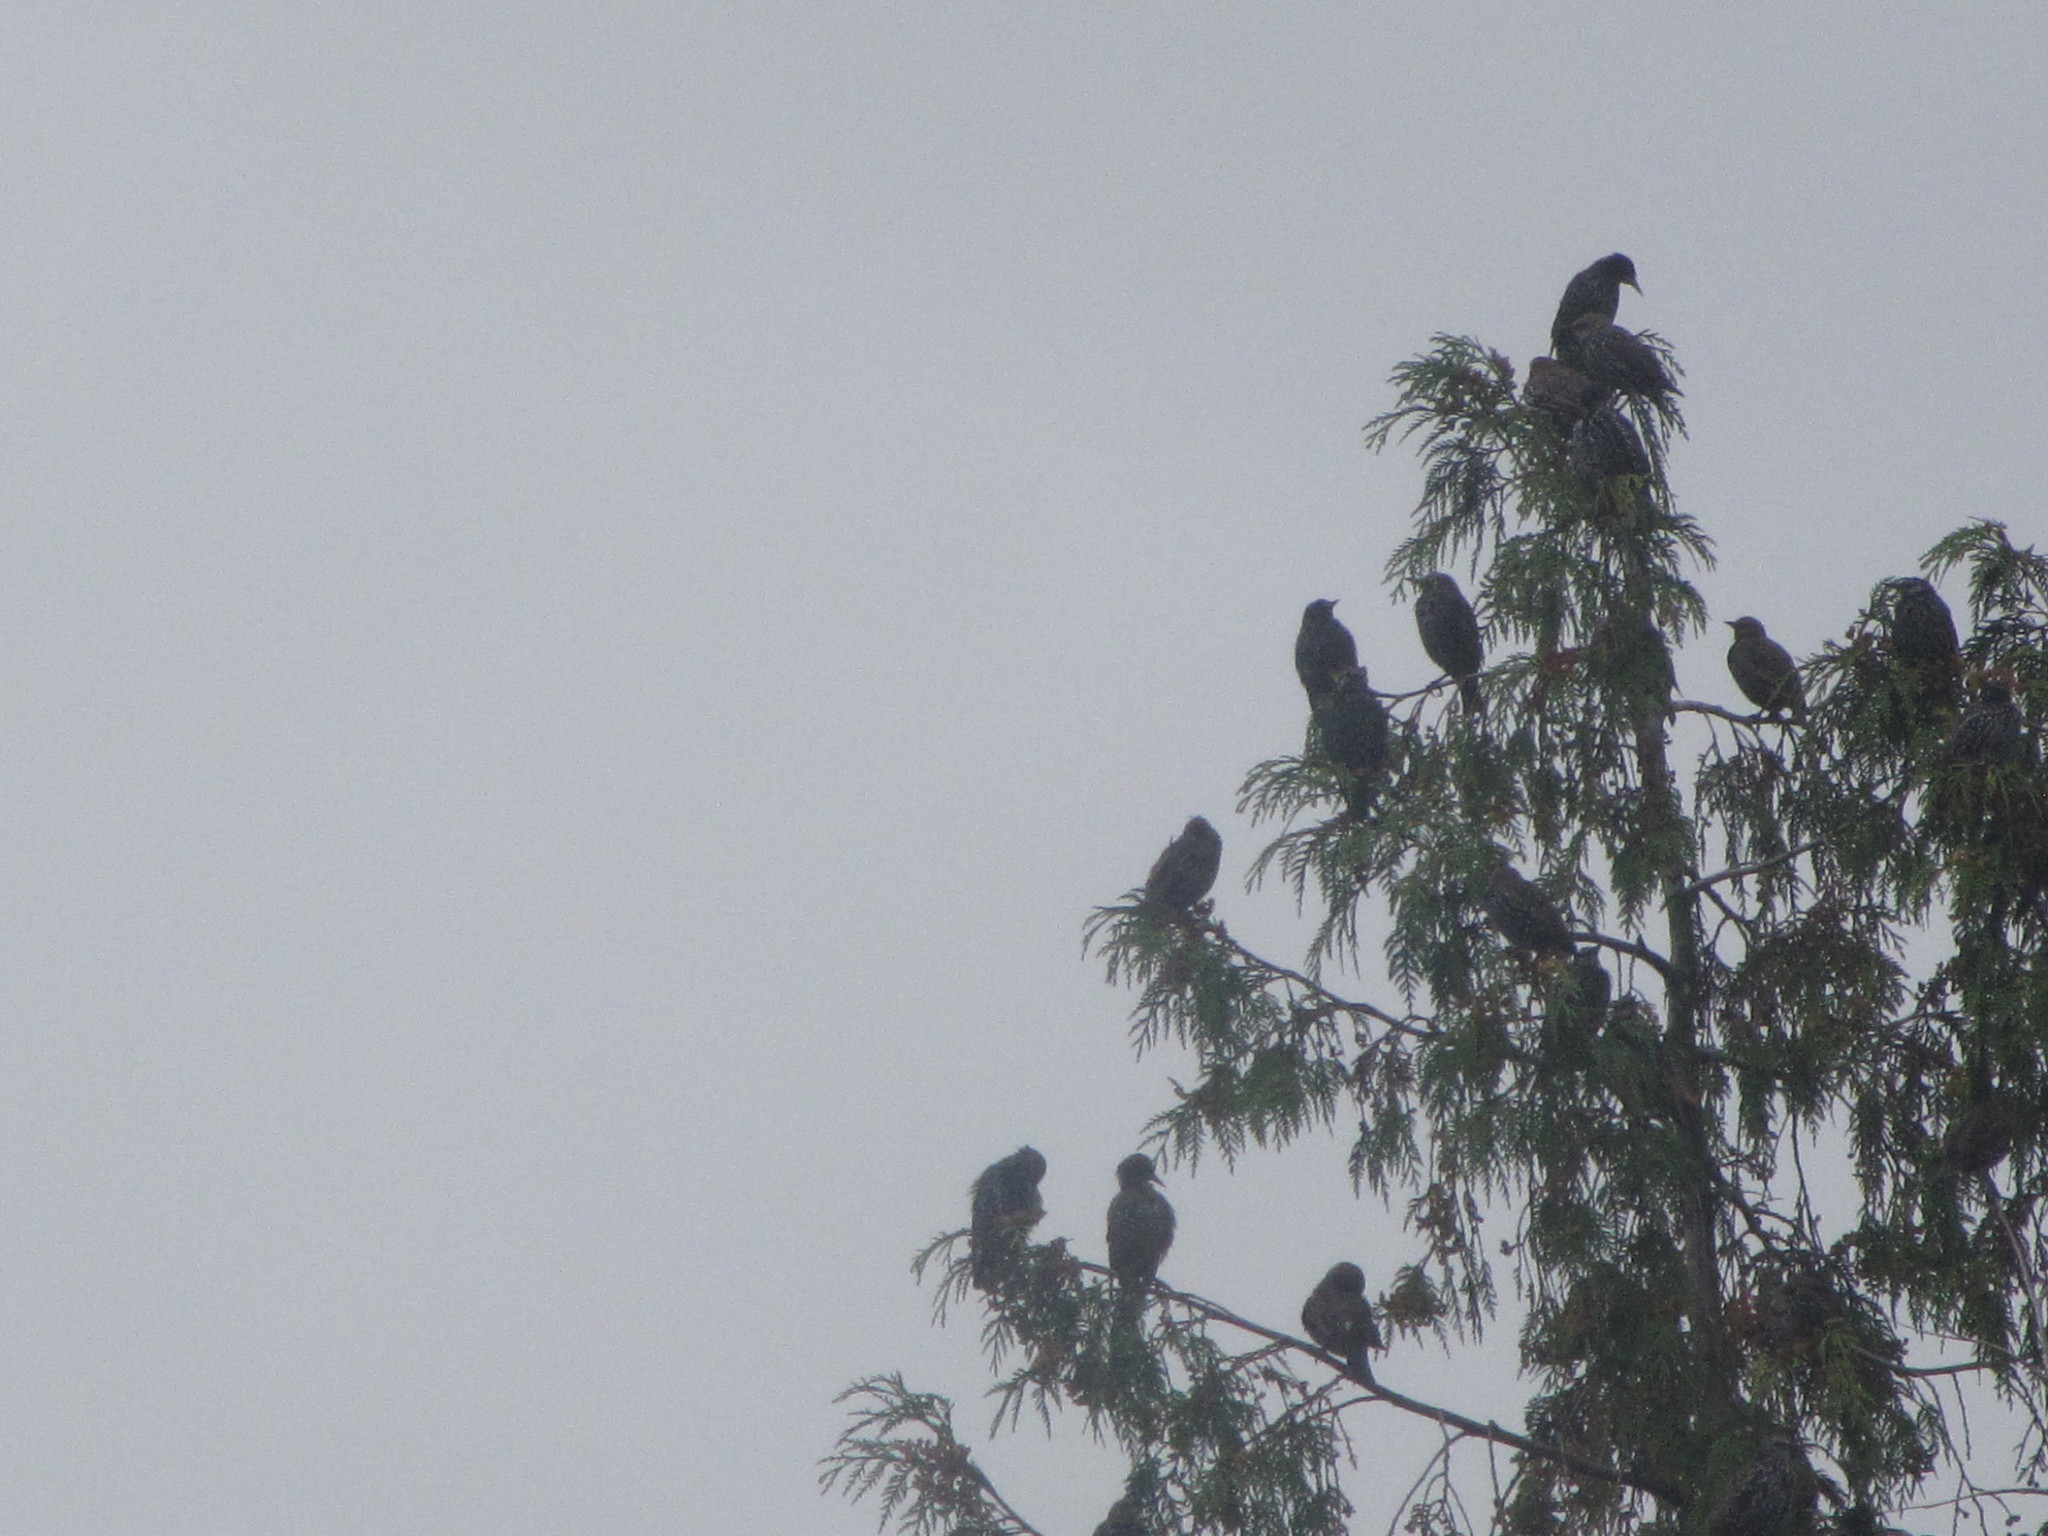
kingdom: Animalia
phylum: Chordata
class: Aves
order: Passeriformes
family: Sturnidae
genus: Sturnus
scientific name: Sturnus vulgaris
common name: Common starling
